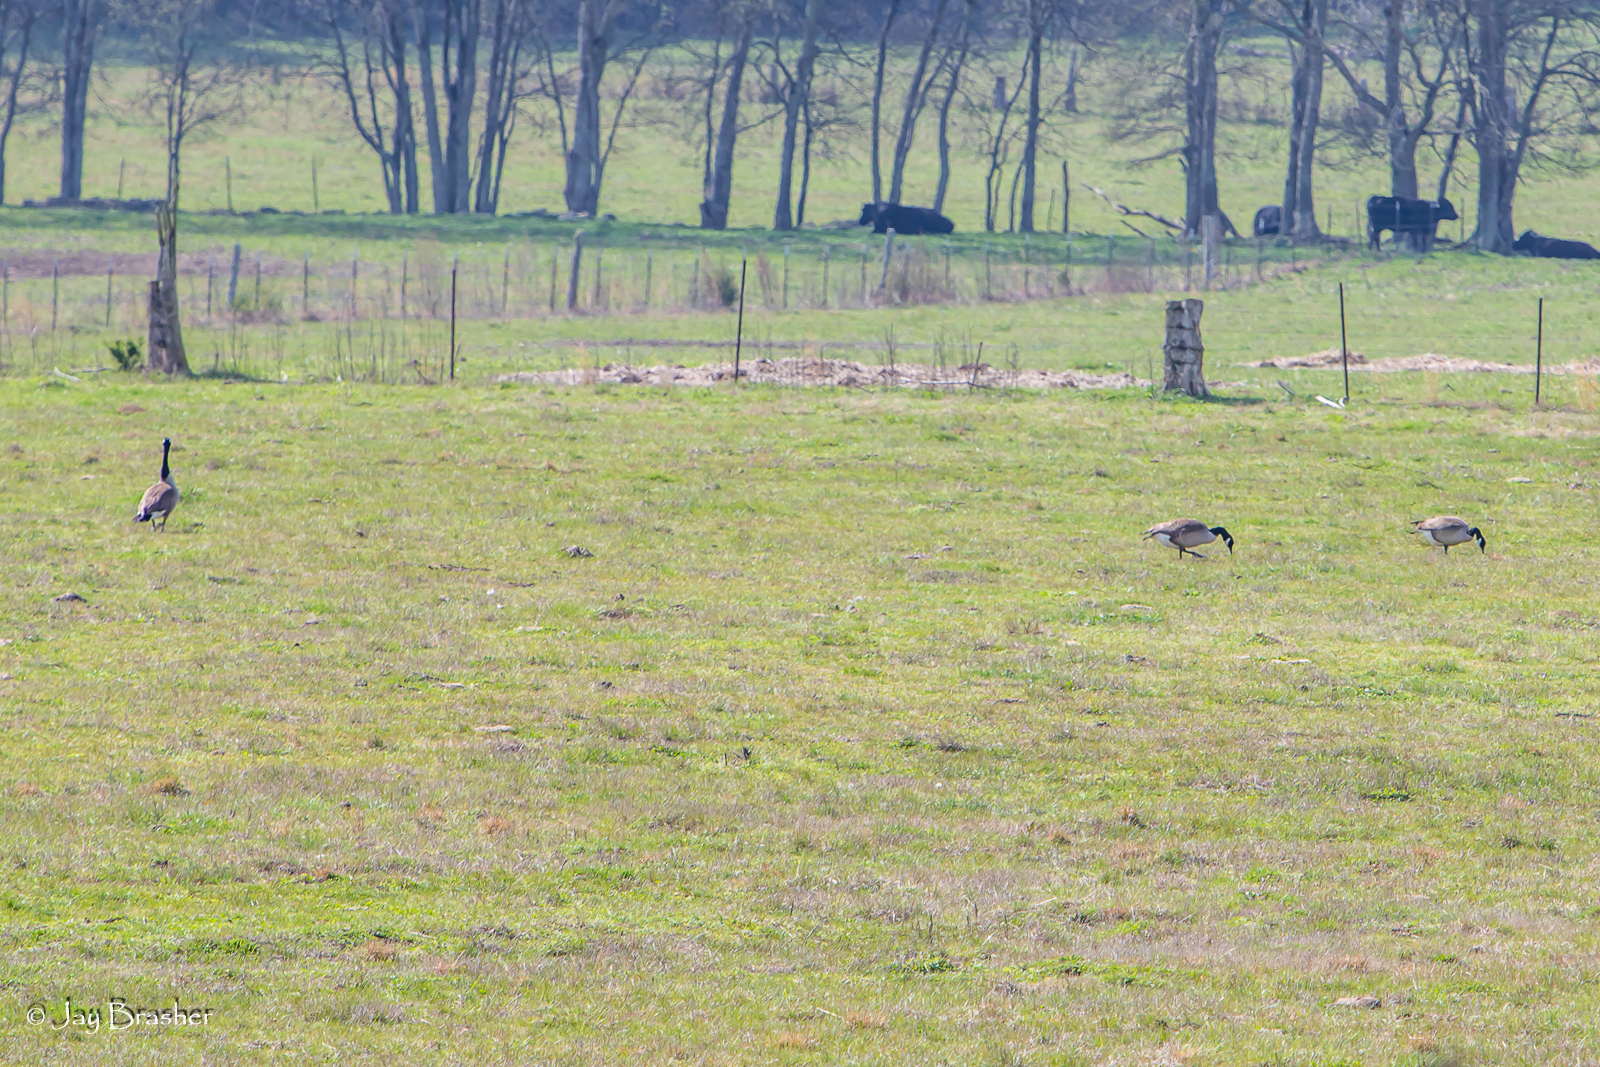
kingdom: Animalia
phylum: Chordata
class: Aves
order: Anseriformes
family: Anatidae
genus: Branta
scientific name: Branta canadensis
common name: Canada goose
